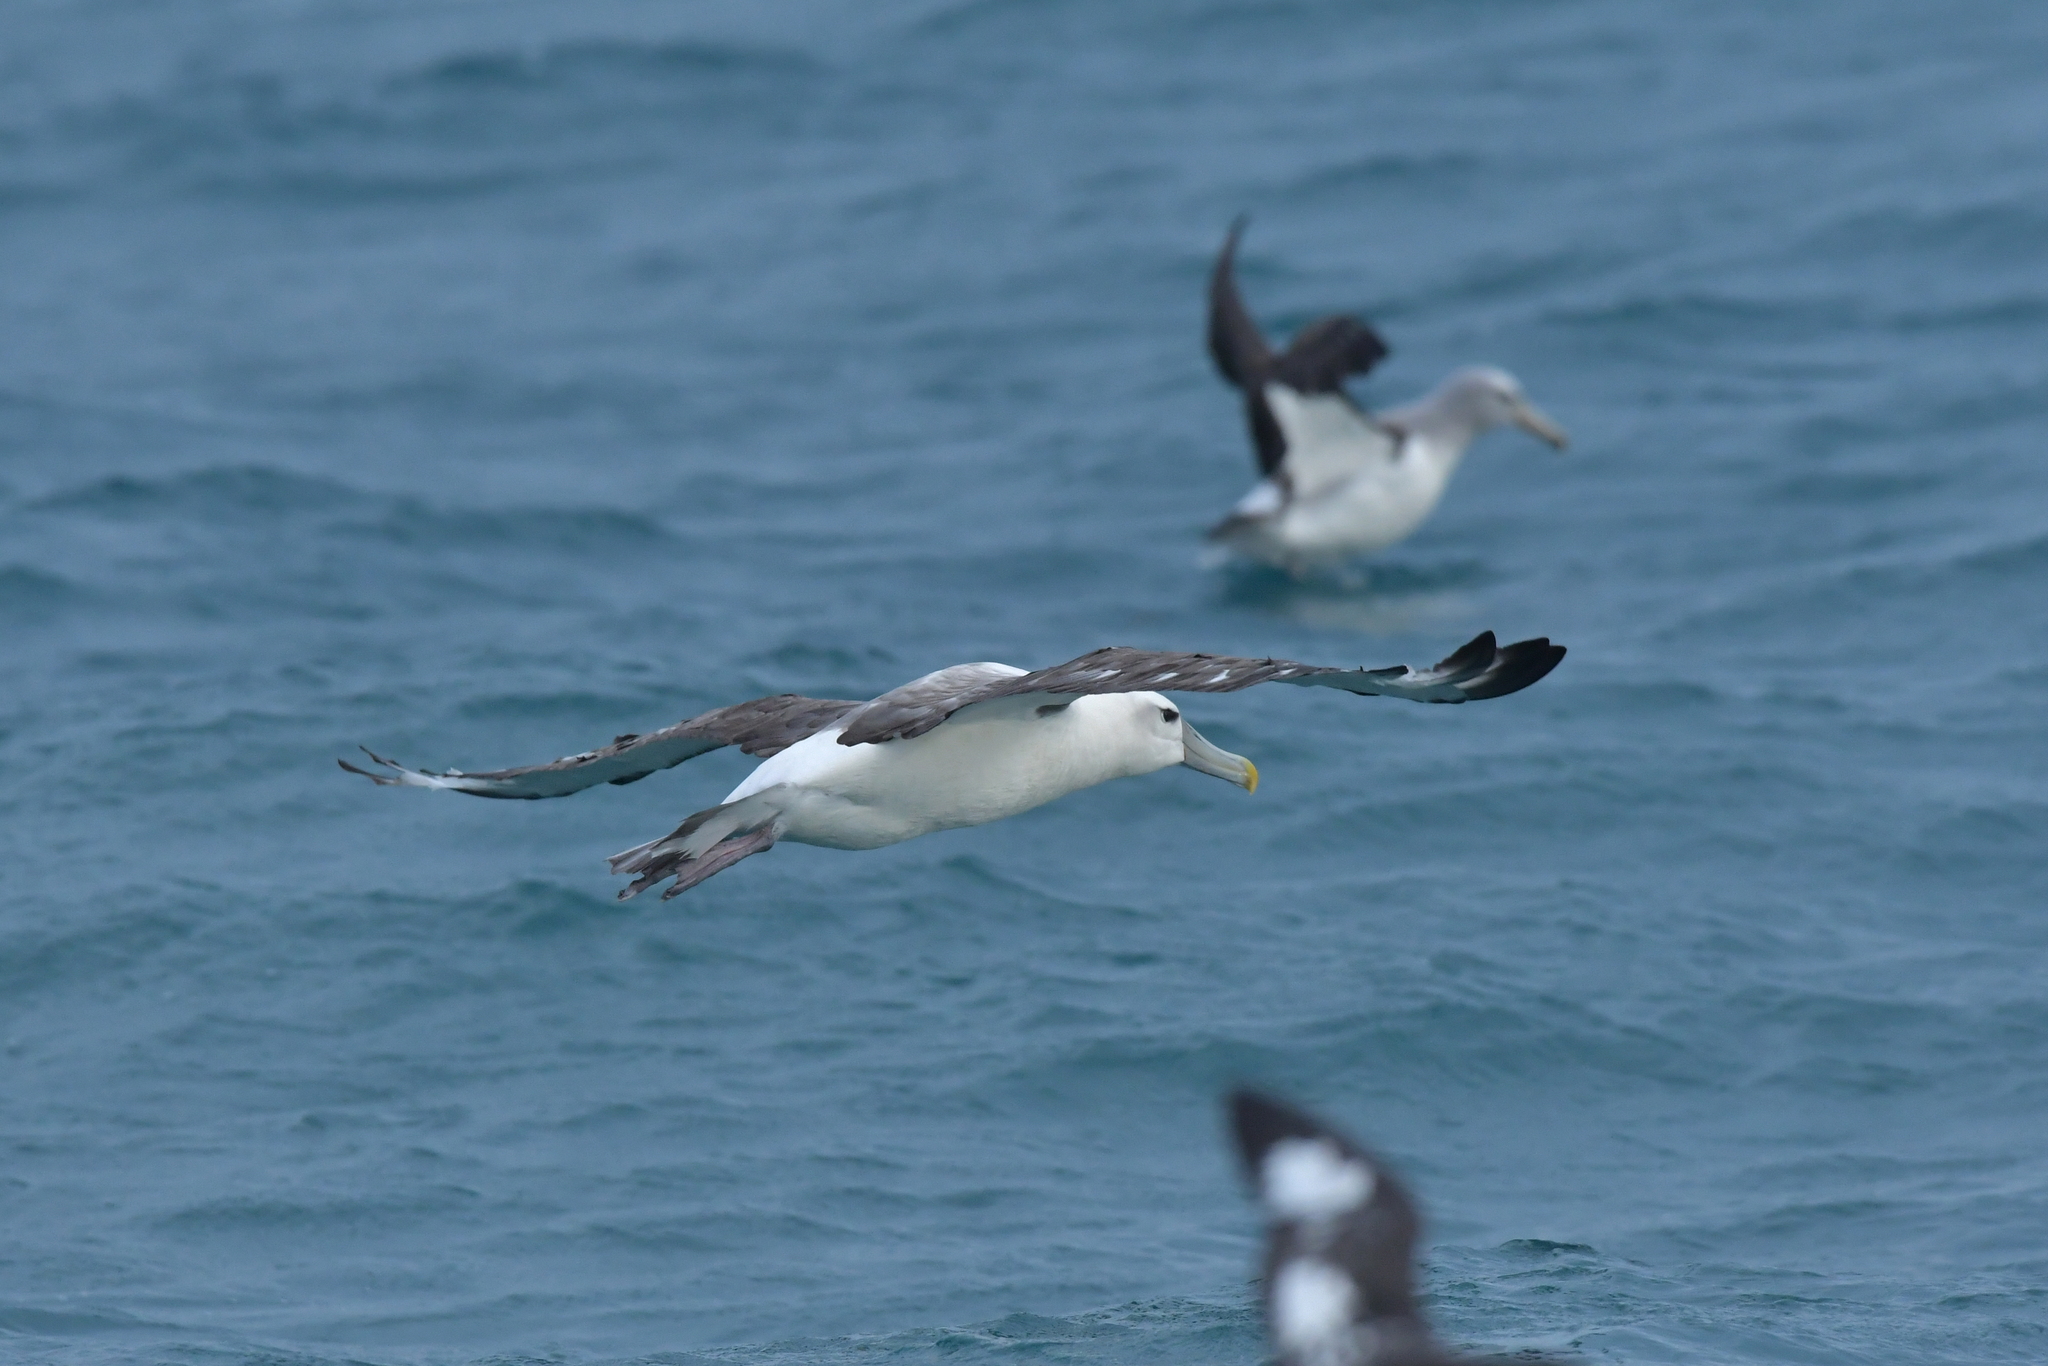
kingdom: Animalia
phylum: Chordata
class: Aves
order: Procellariiformes
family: Diomedeidae
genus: Thalassarche
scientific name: Thalassarche cauta
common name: Shy albatross
